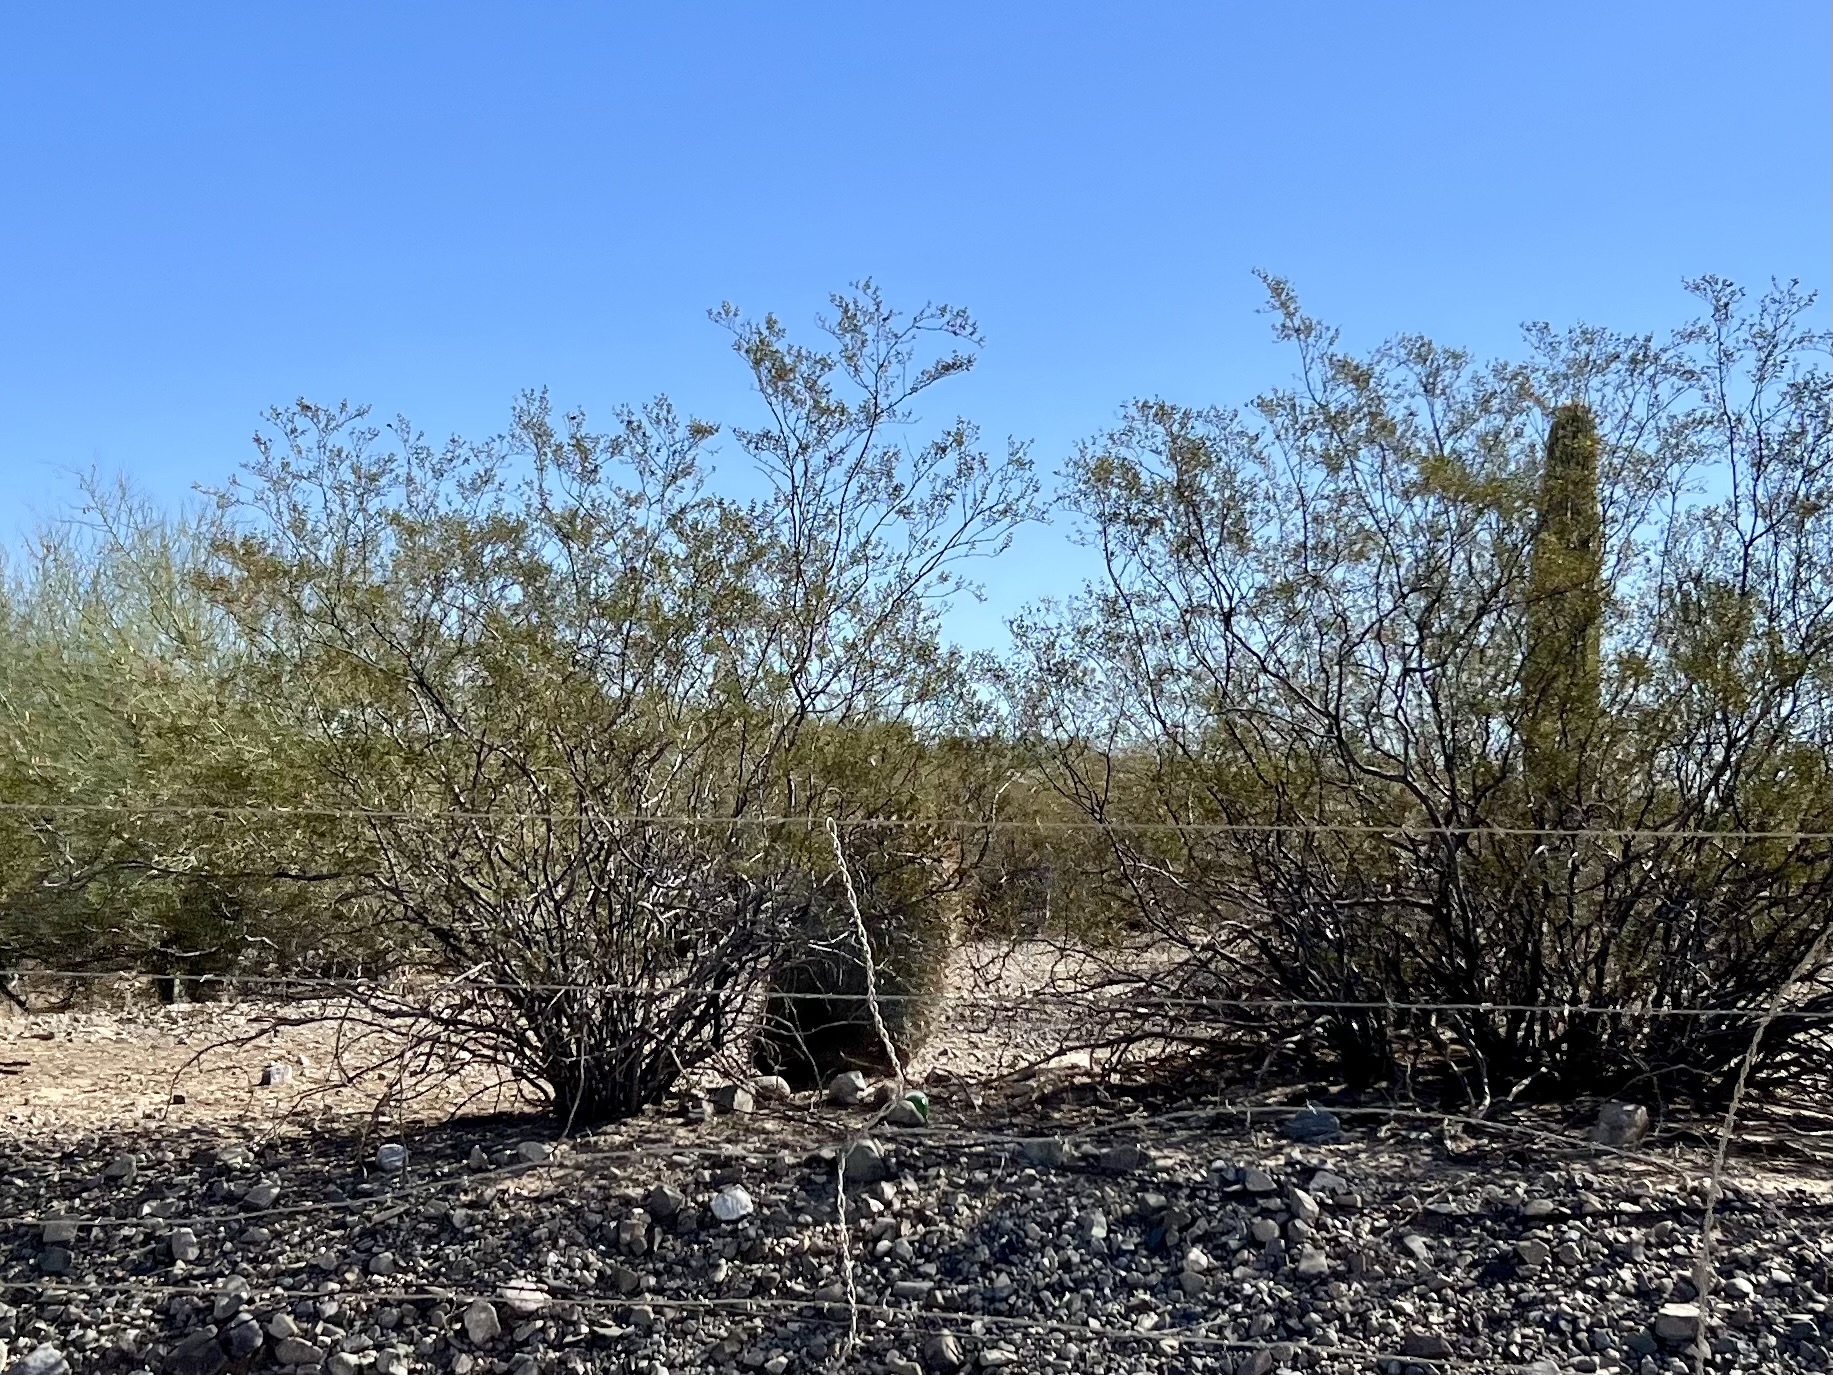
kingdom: Plantae
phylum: Tracheophyta
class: Magnoliopsida
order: Zygophyllales
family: Zygophyllaceae
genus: Larrea
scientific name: Larrea tridentata
